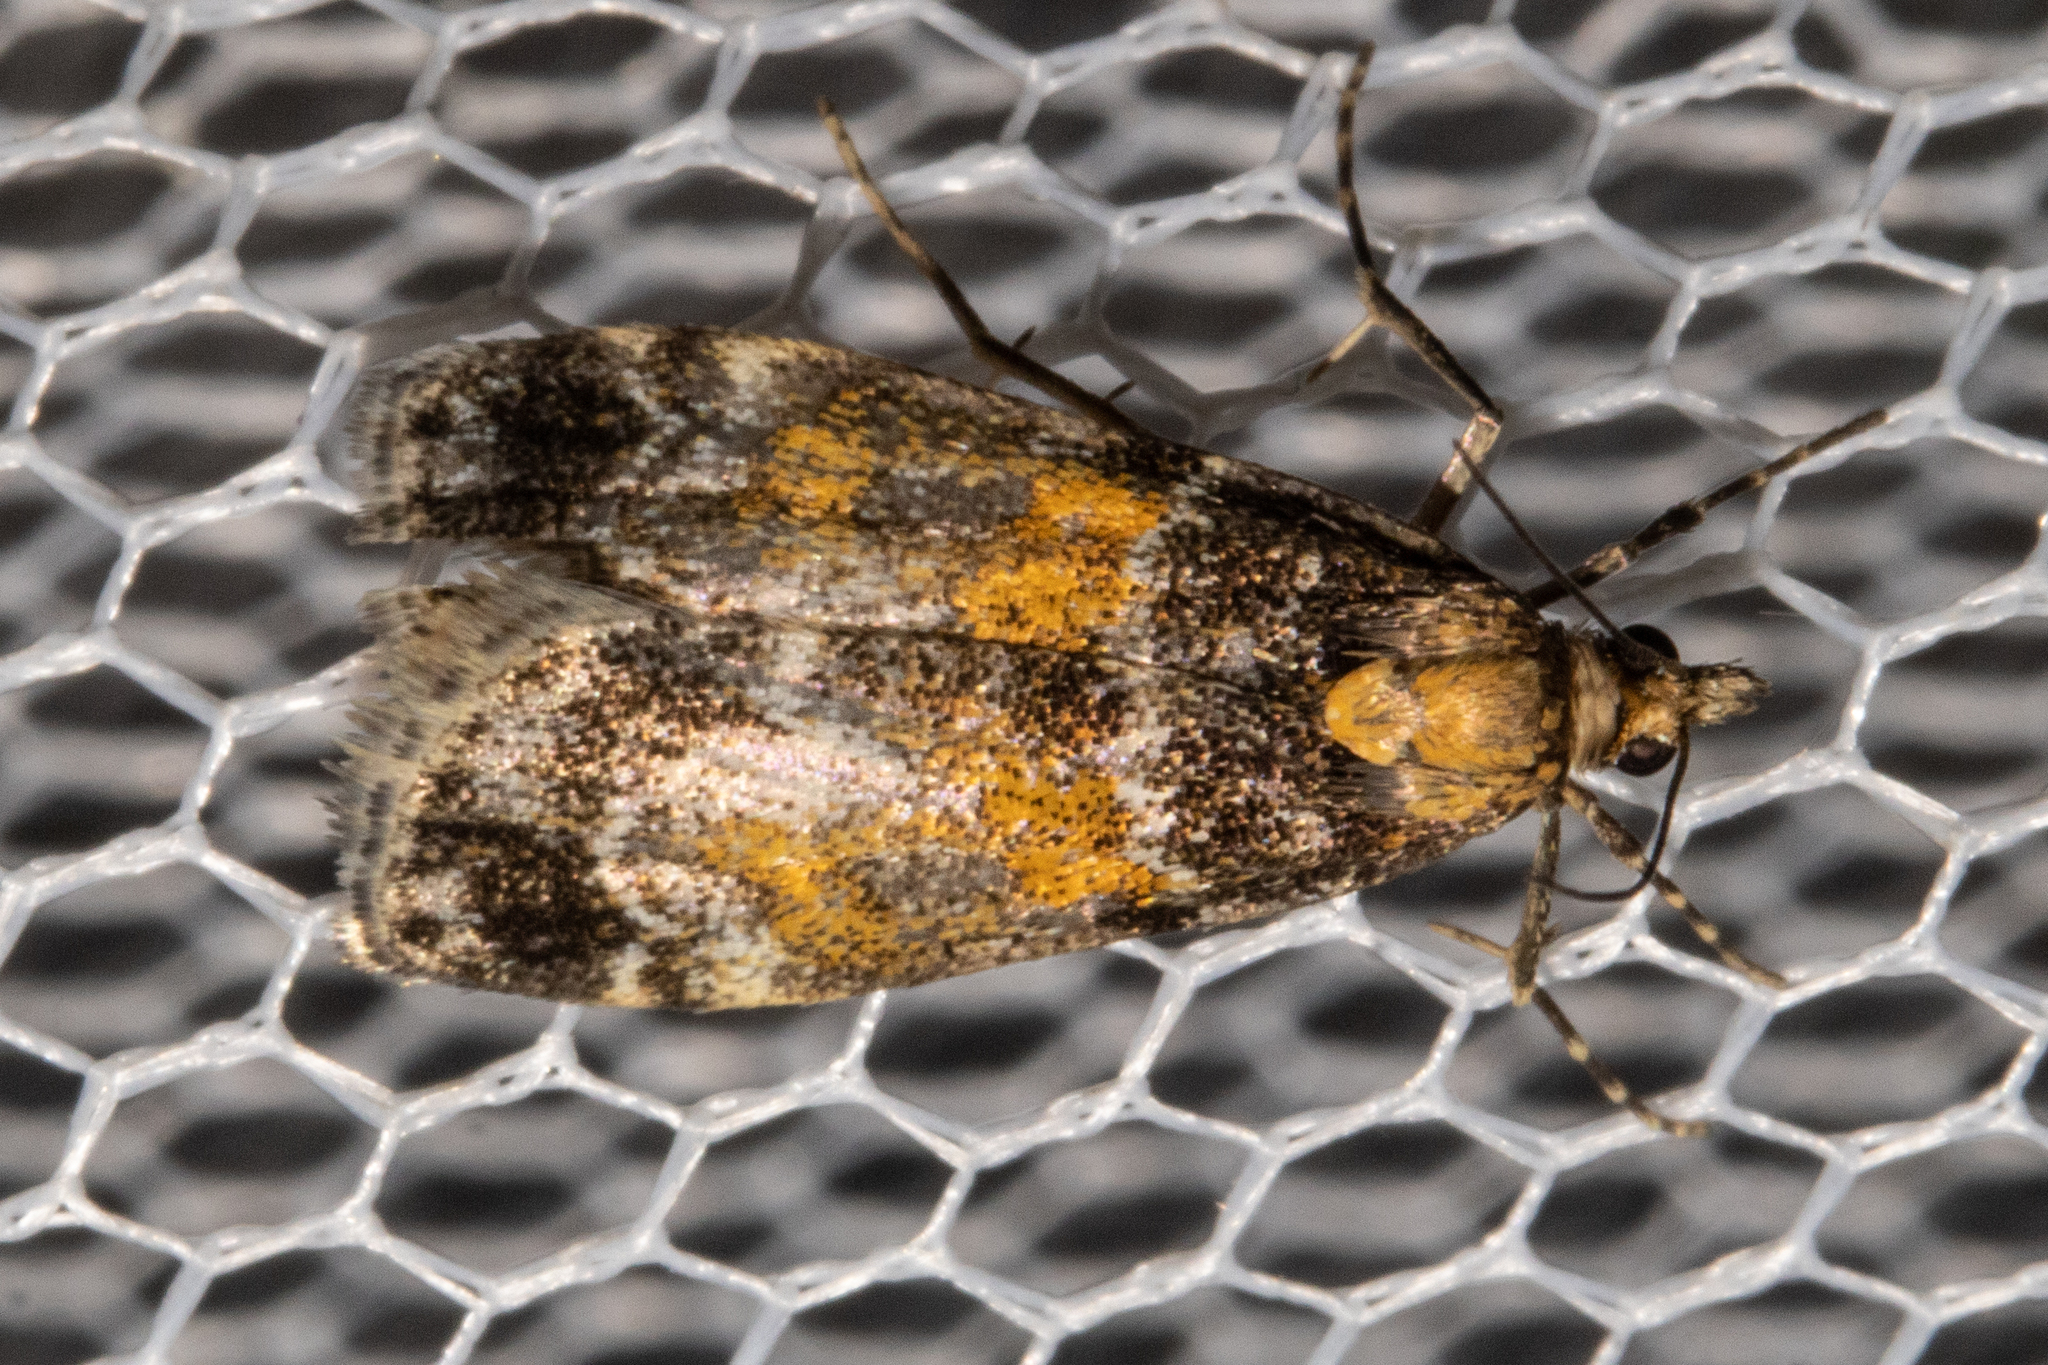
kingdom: Animalia
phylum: Arthropoda
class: Insecta
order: Lepidoptera
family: Crambidae
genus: Eudonia
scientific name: Eudonia thyridias
